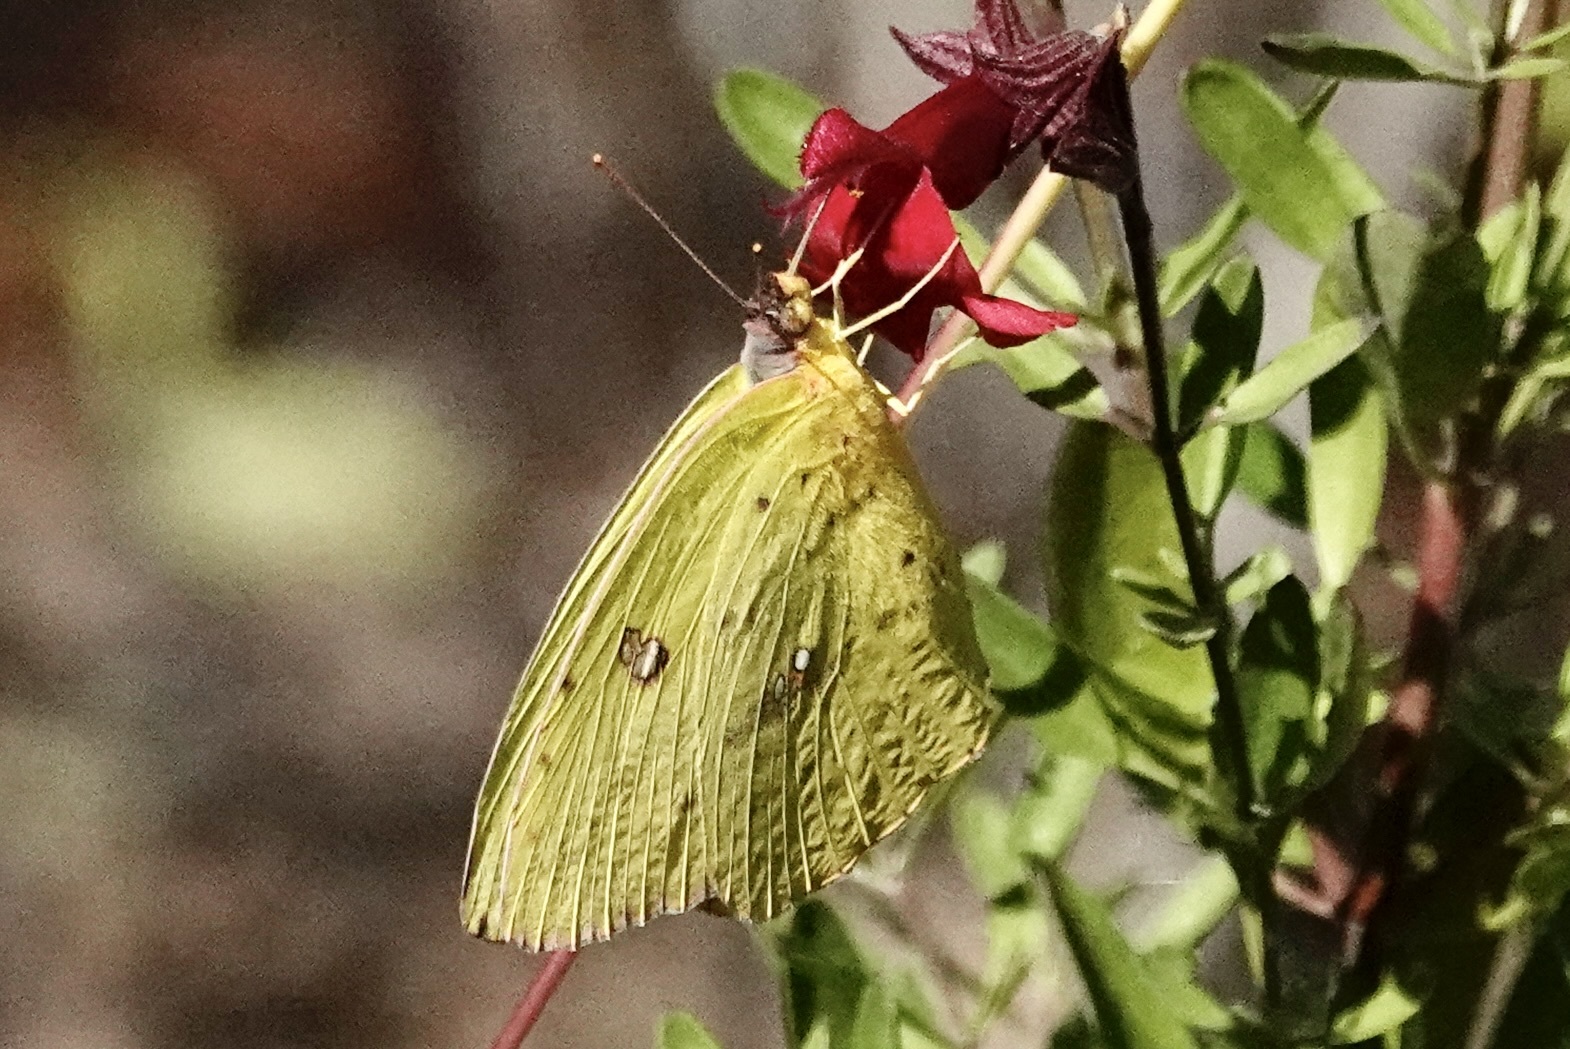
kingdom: Animalia
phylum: Arthropoda
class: Insecta
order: Lepidoptera
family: Pieridae
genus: Phoebis
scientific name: Phoebis sennae
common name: Cloudless sulphur
